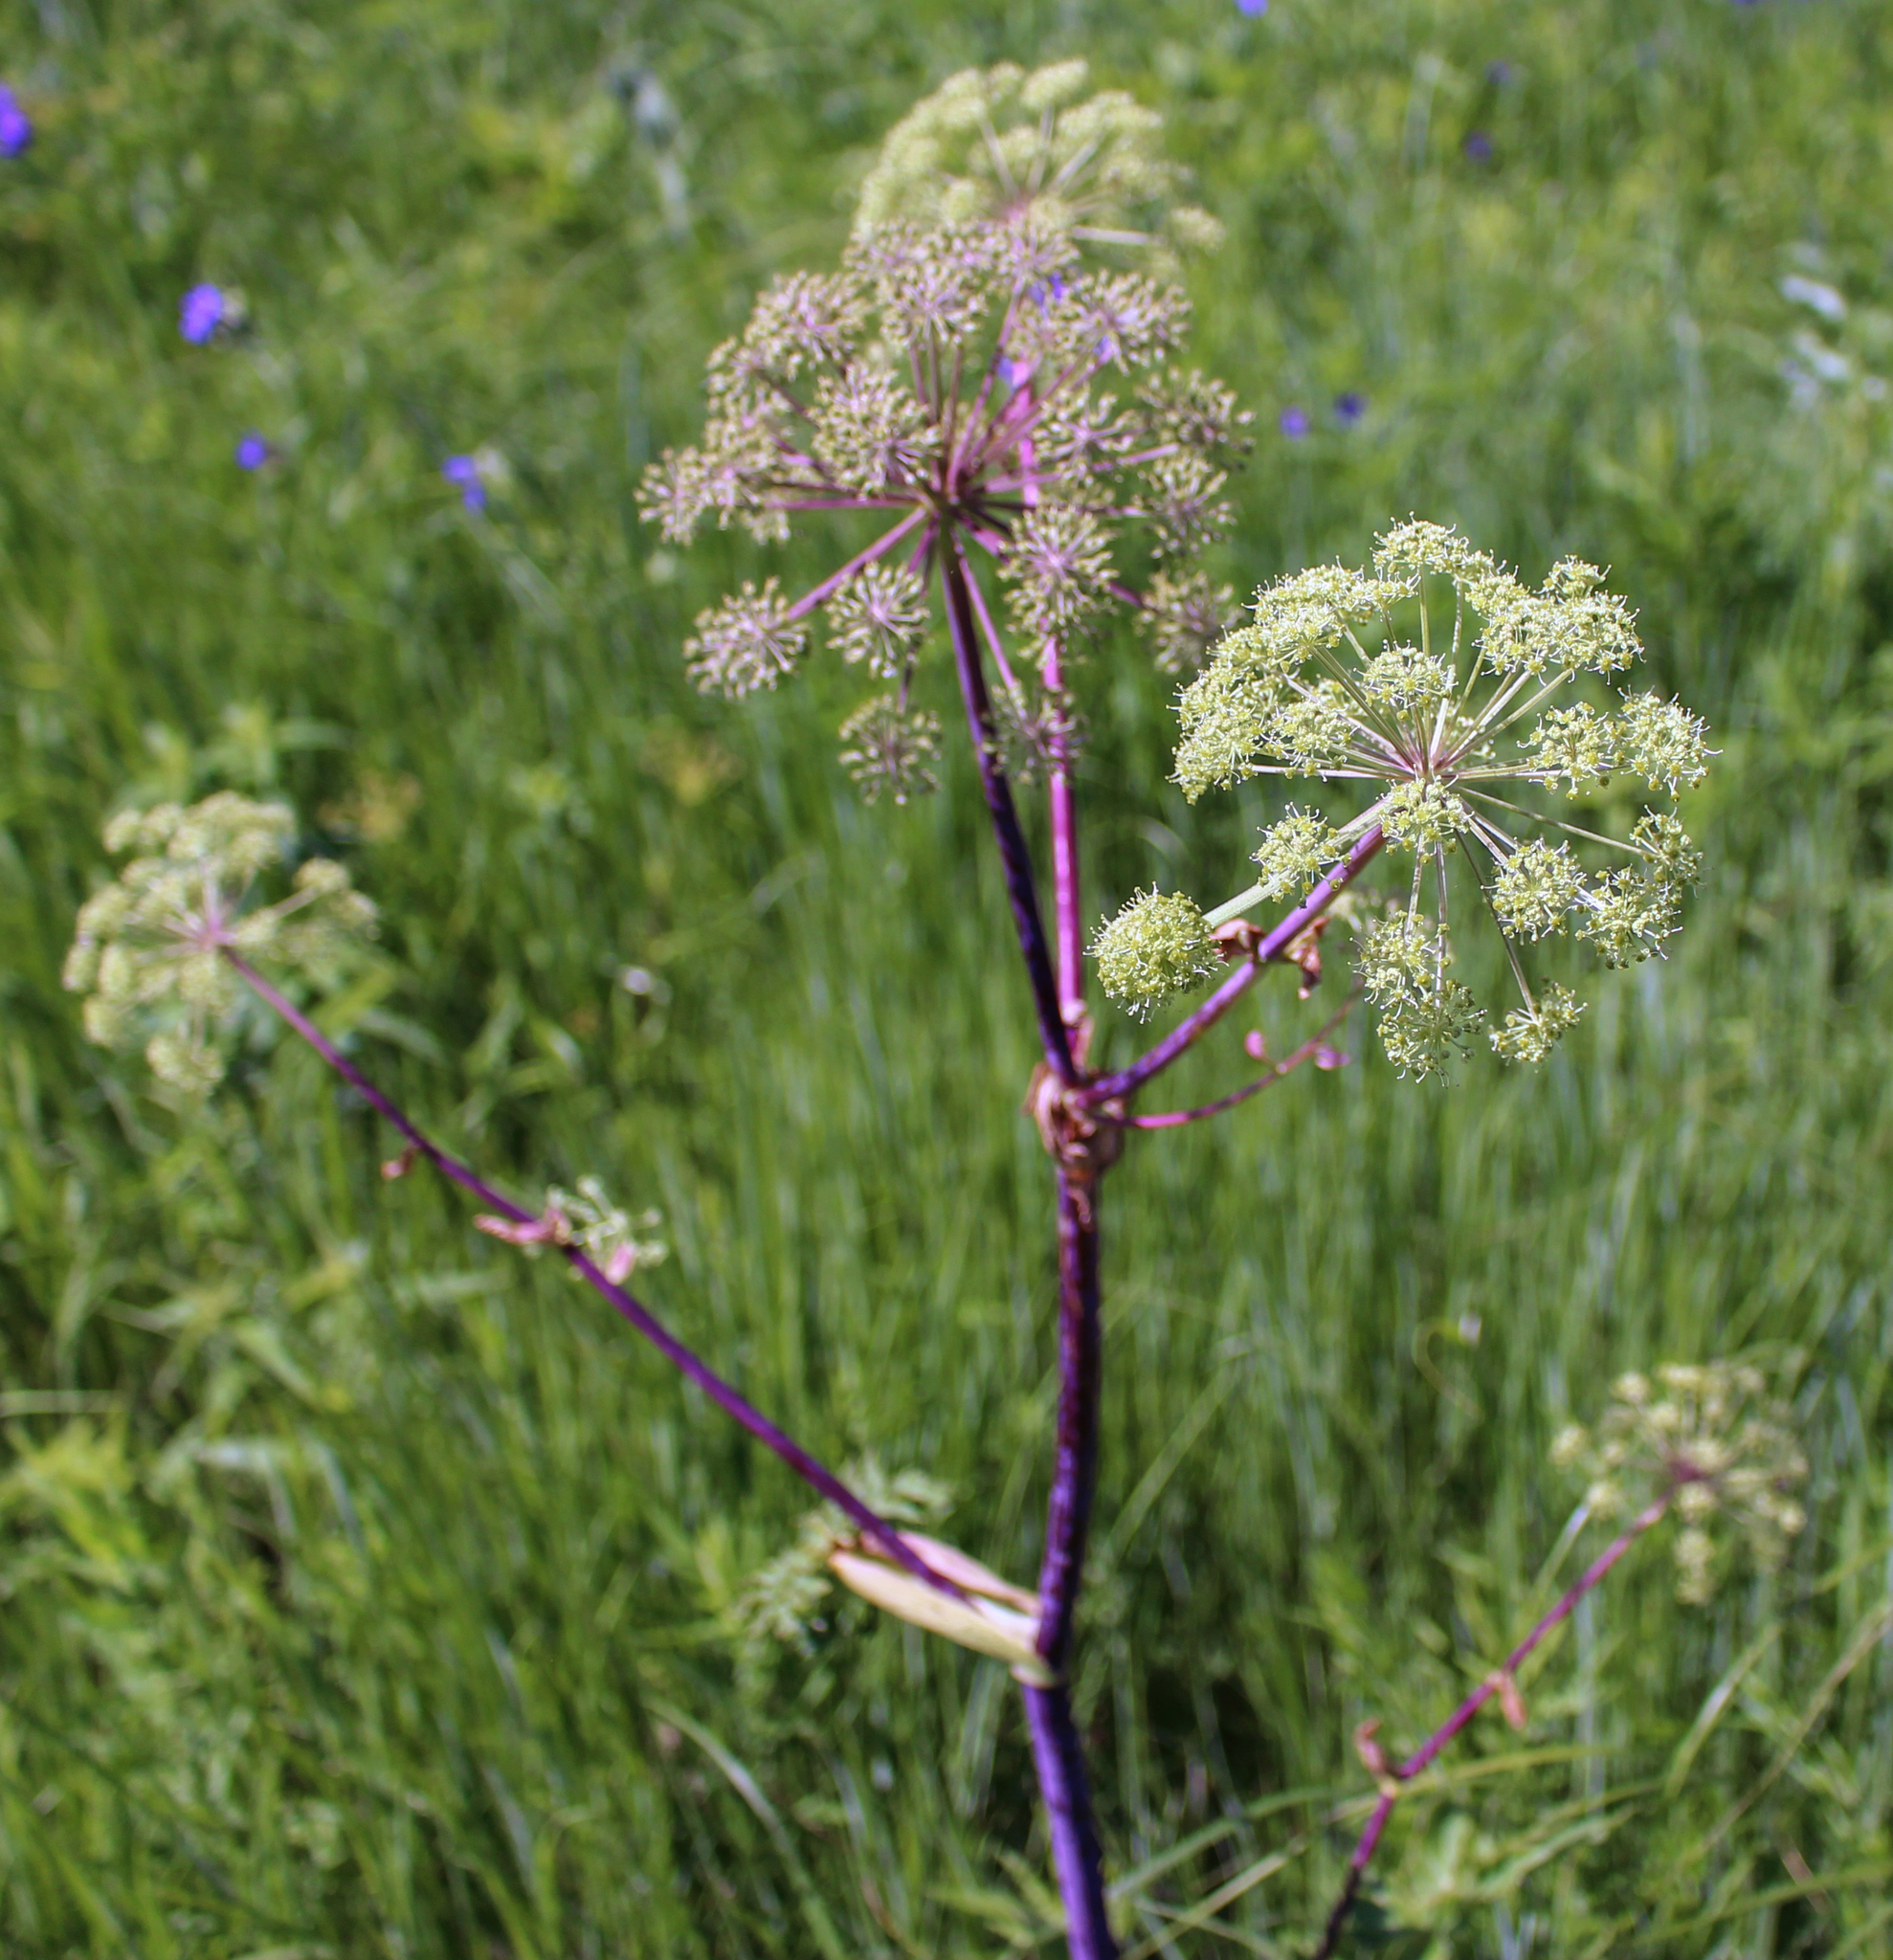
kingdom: Plantae
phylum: Tracheophyta
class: Magnoliopsida
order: Apiales
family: Apiaceae
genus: Angelica
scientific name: Angelica atropurpurea
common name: Great angelica
